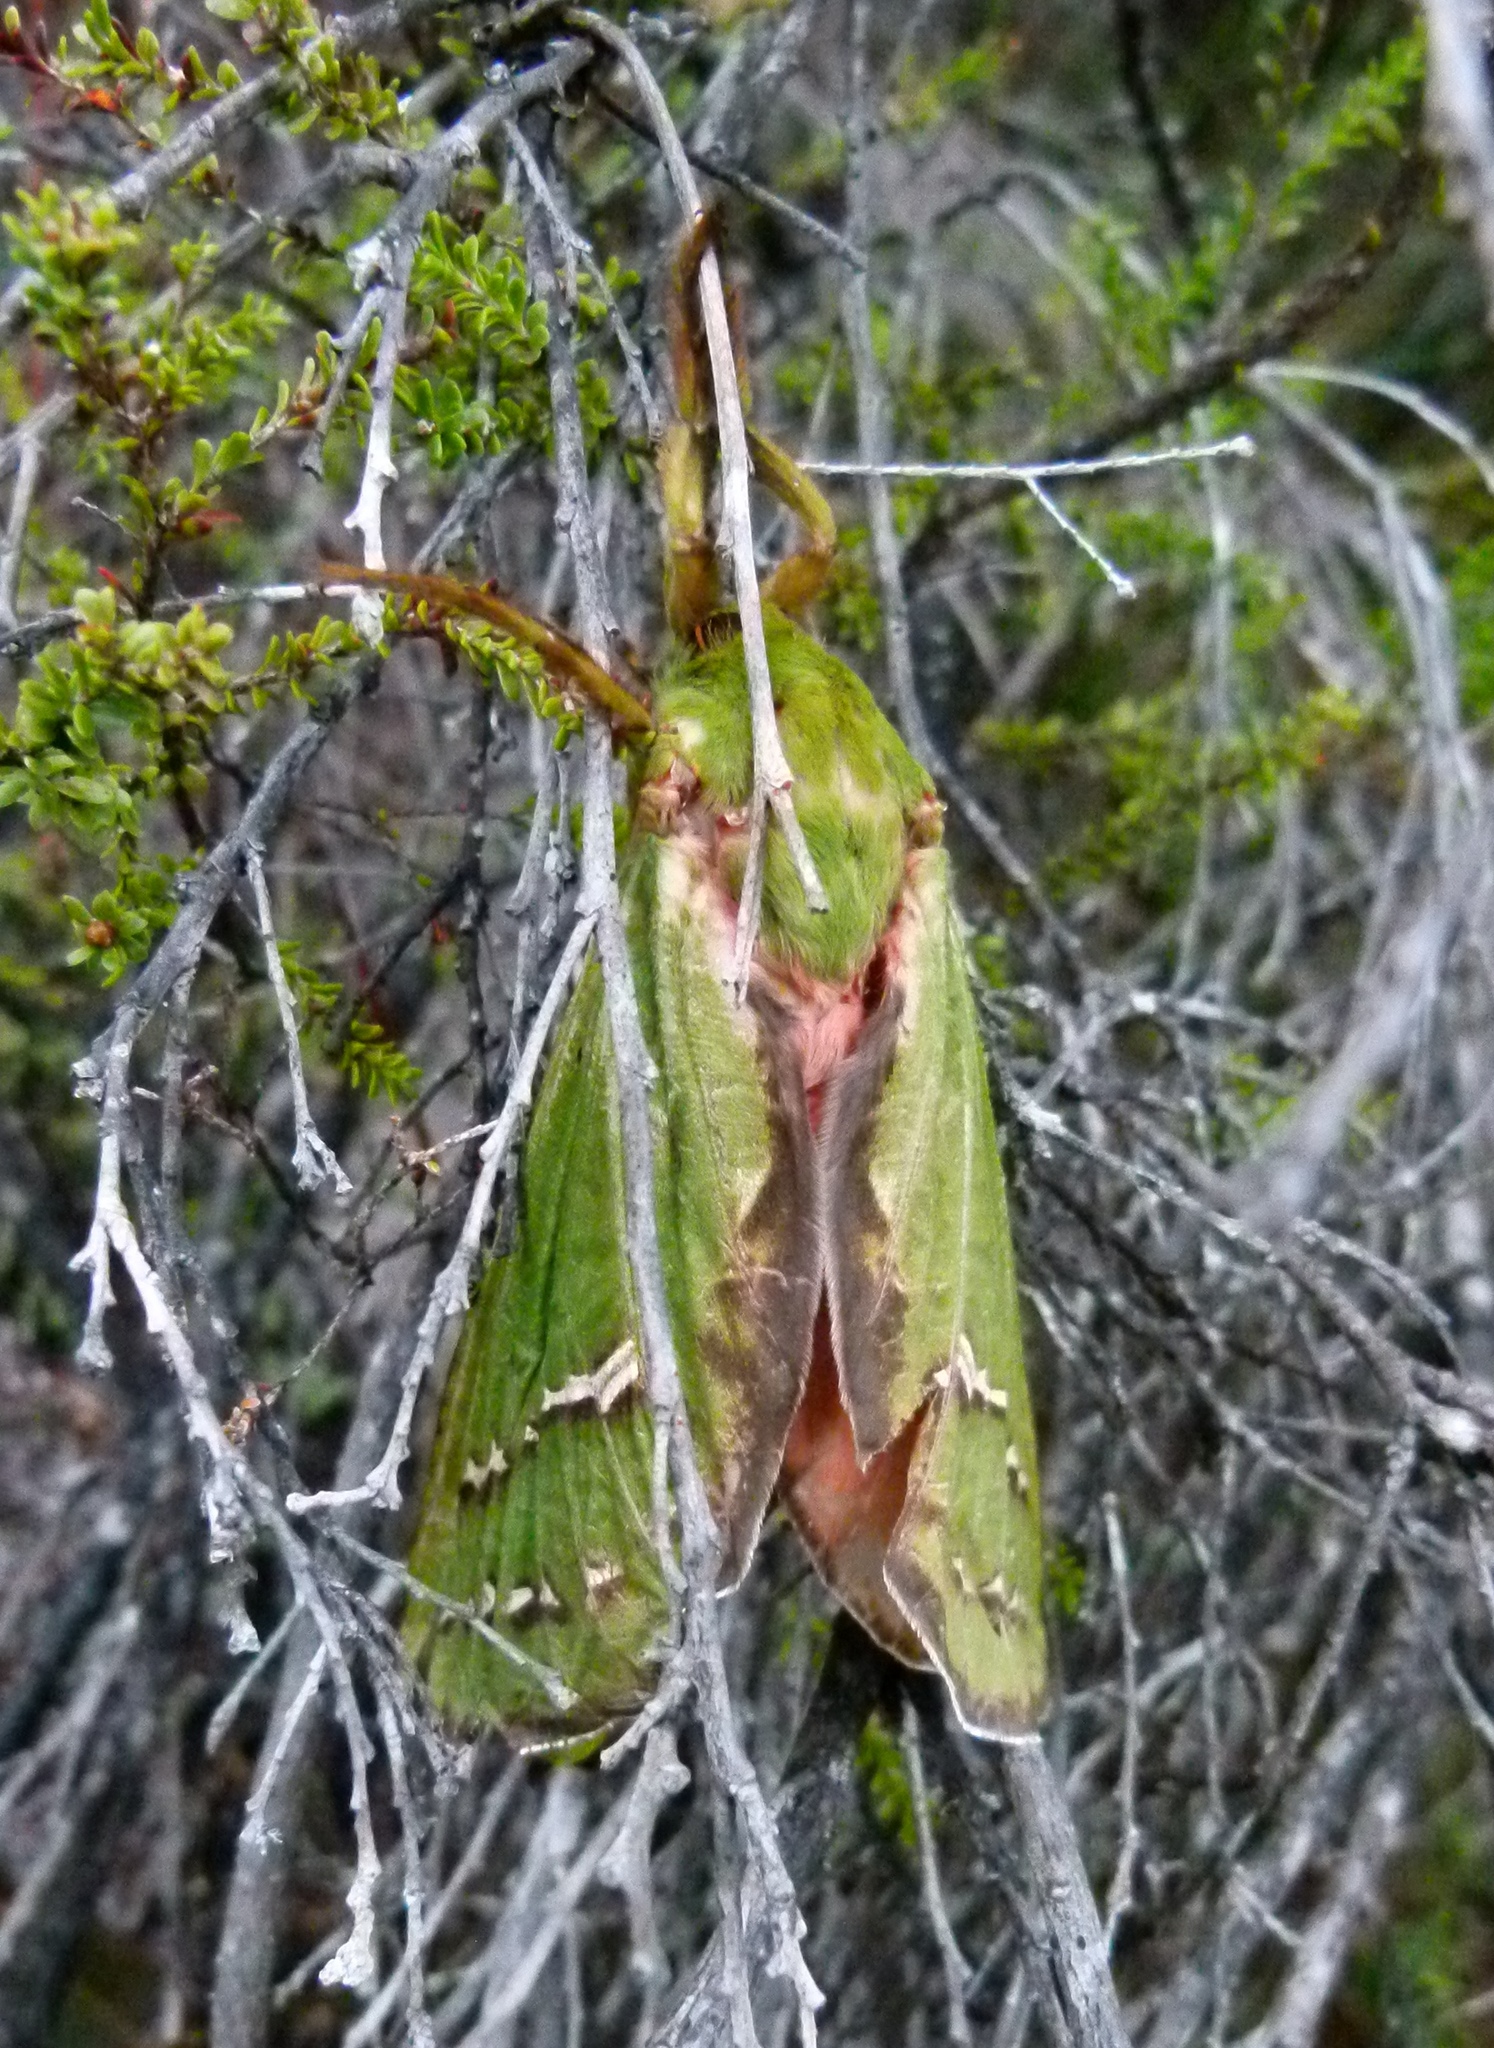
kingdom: Animalia
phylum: Arthropoda
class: Insecta
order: Lepidoptera
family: Hepialidae
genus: Aenetus
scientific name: Aenetus dulcis
